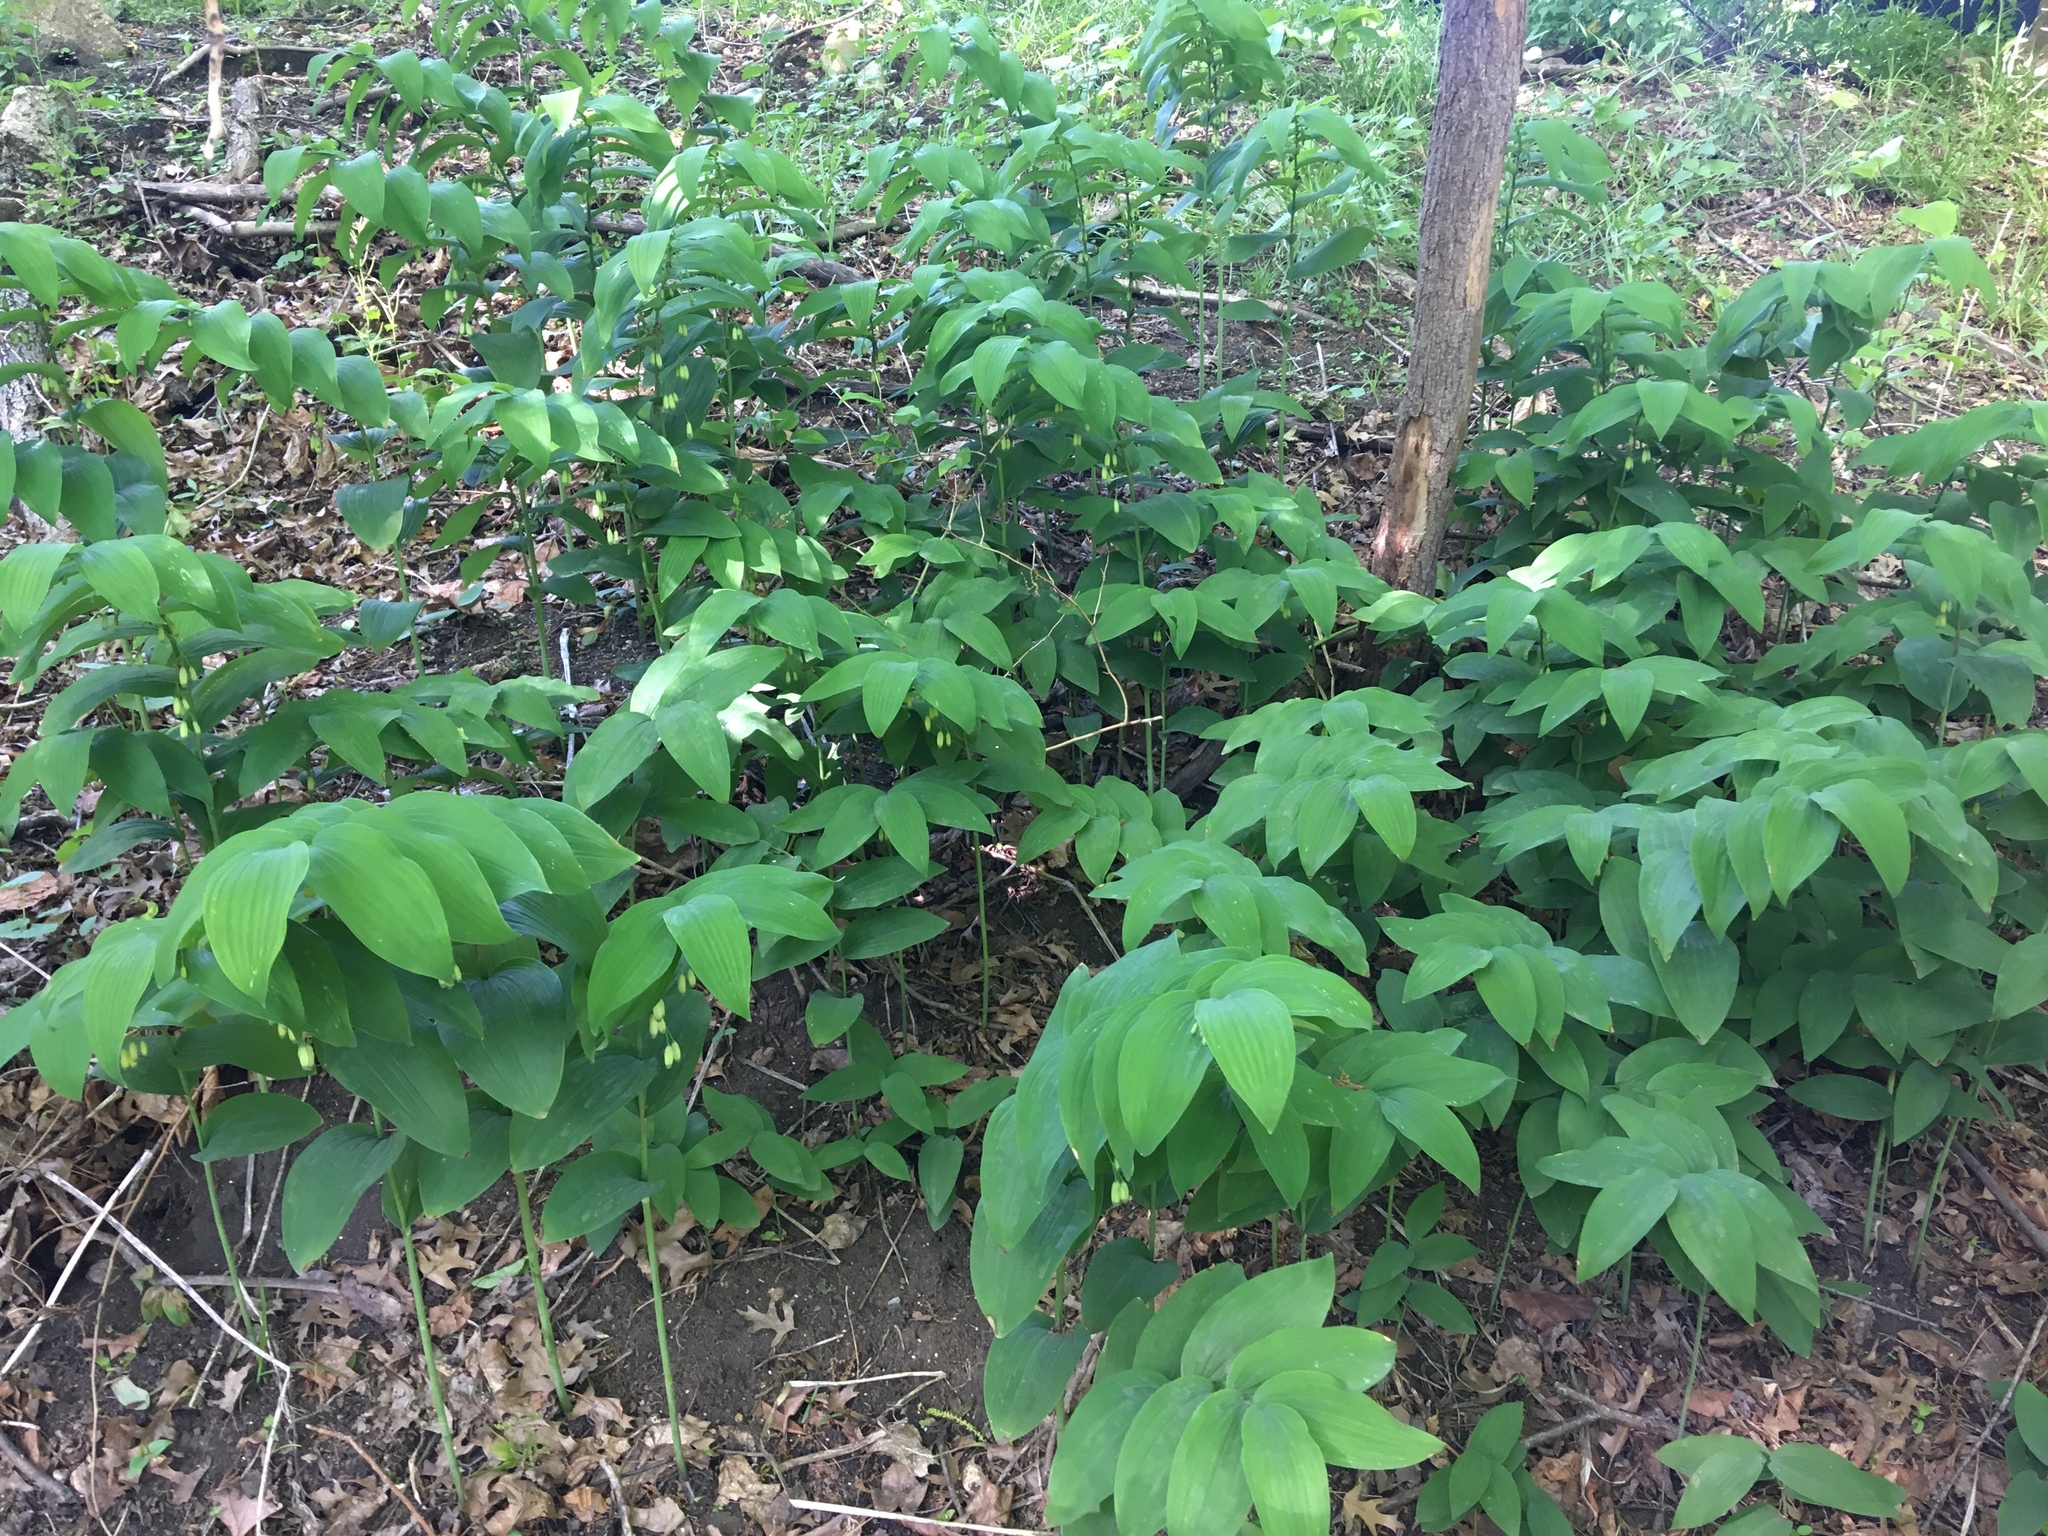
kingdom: Plantae
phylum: Tracheophyta
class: Liliopsida
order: Asparagales
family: Asparagaceae
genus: Polygonatum
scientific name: Polygonatum biflorum
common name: American solomon's-seal
